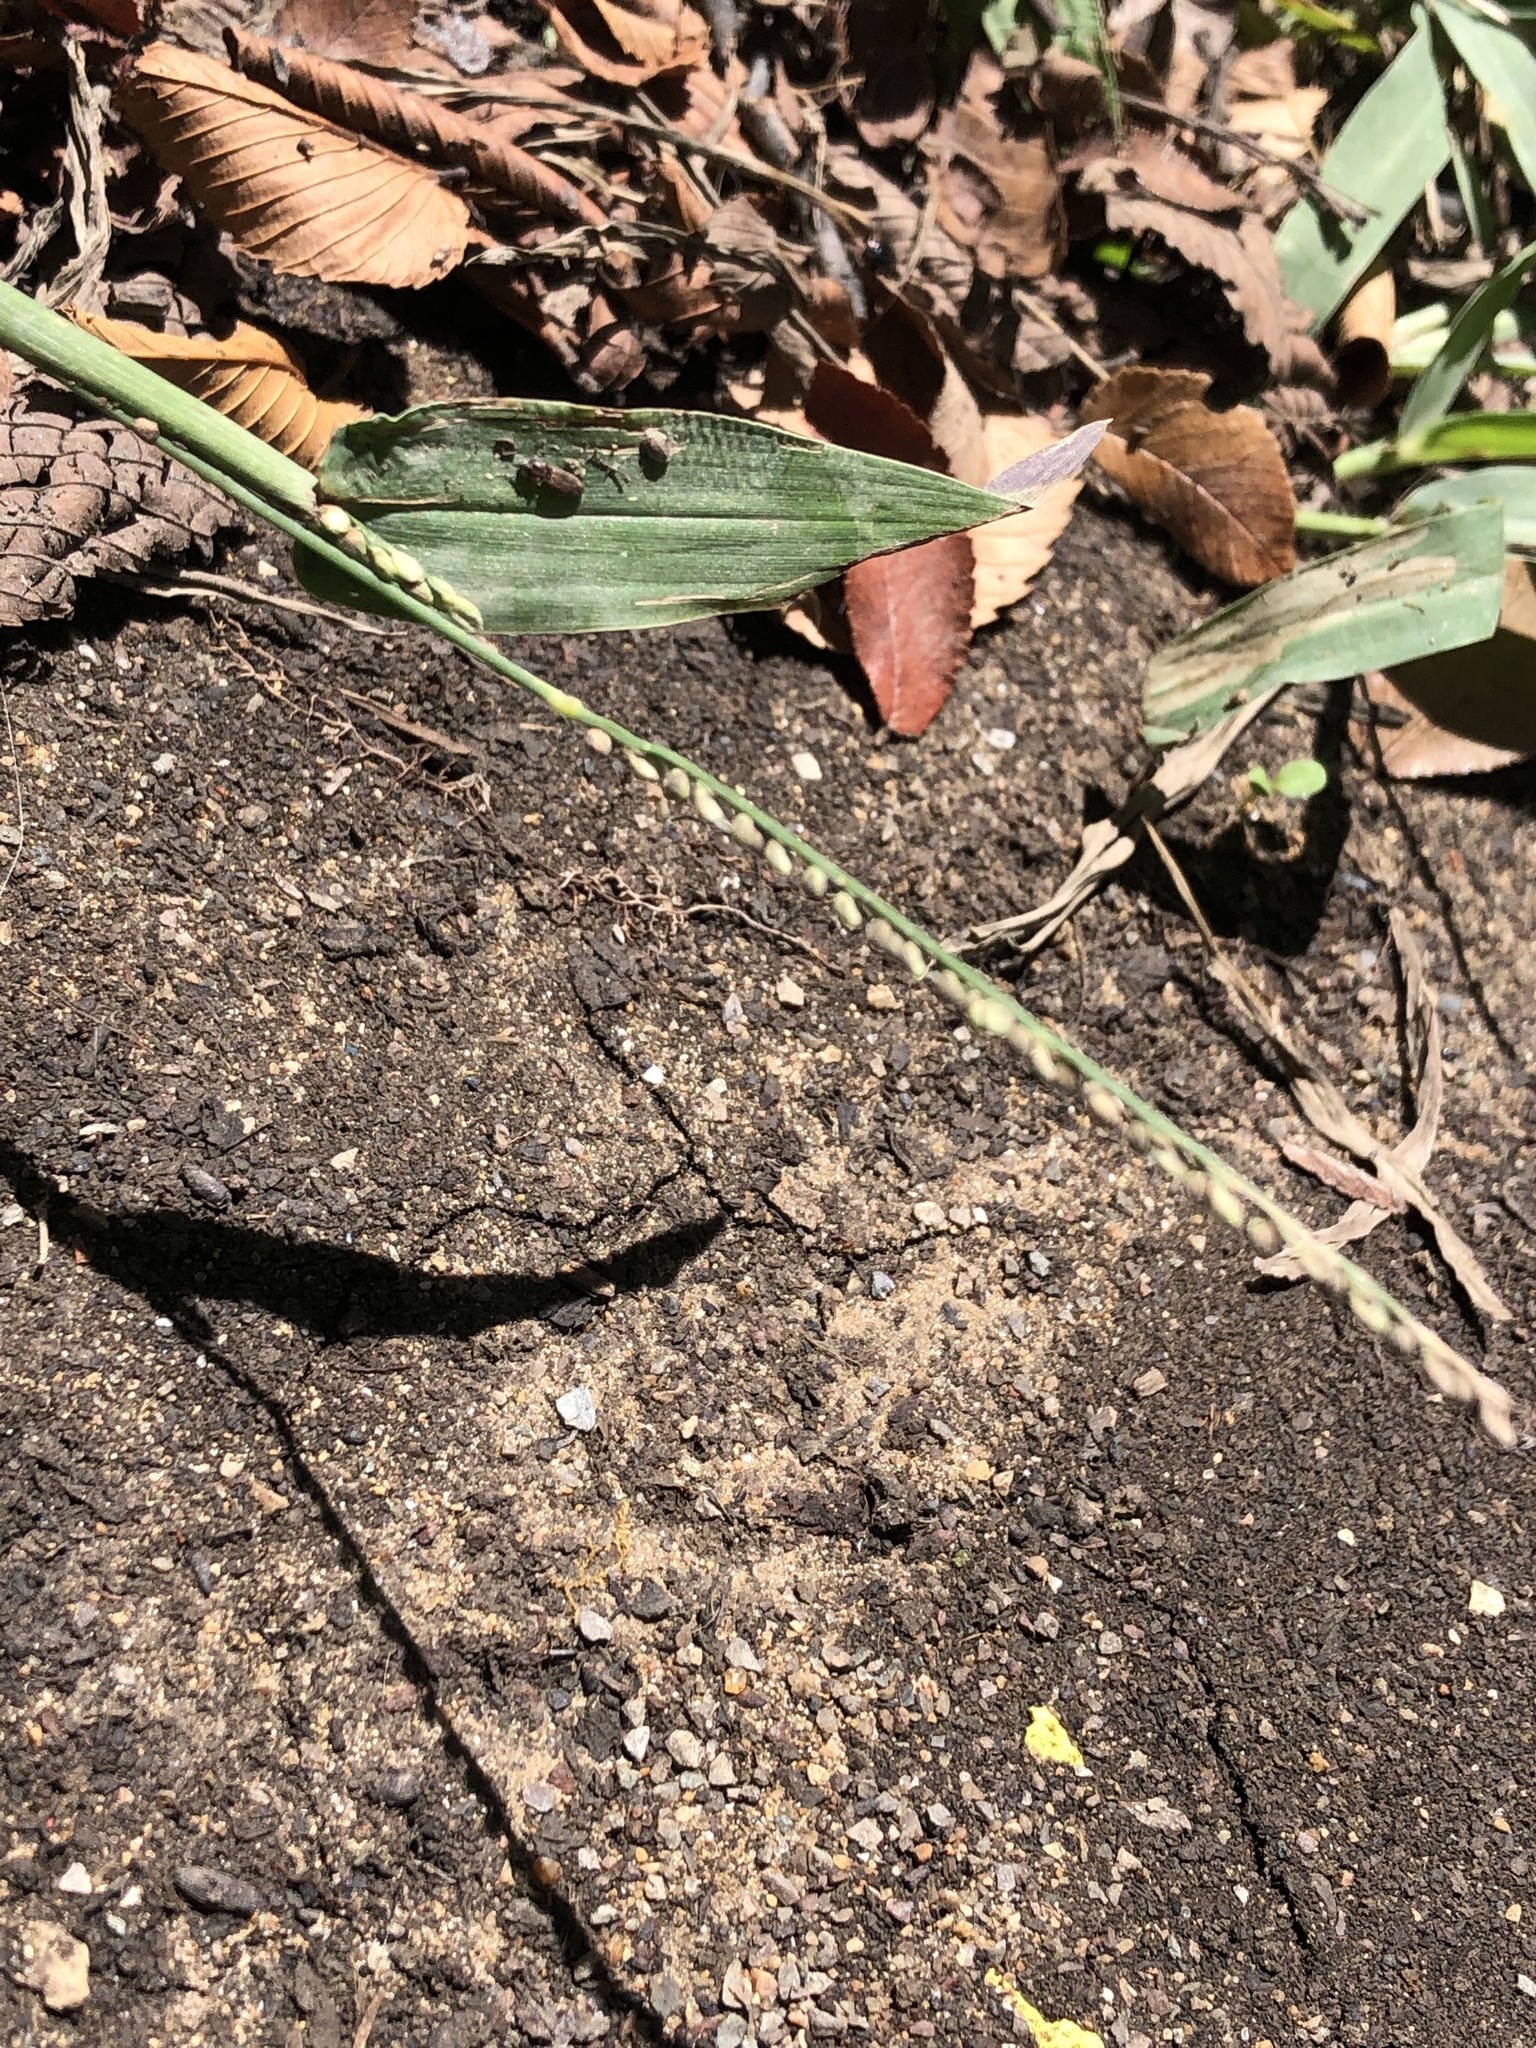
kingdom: Plantae
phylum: Tracheophyta
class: Liliopsida
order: Poales
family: Poaceae
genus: Paspalum
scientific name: Paspalum langei
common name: Rusty-seed paspalum
